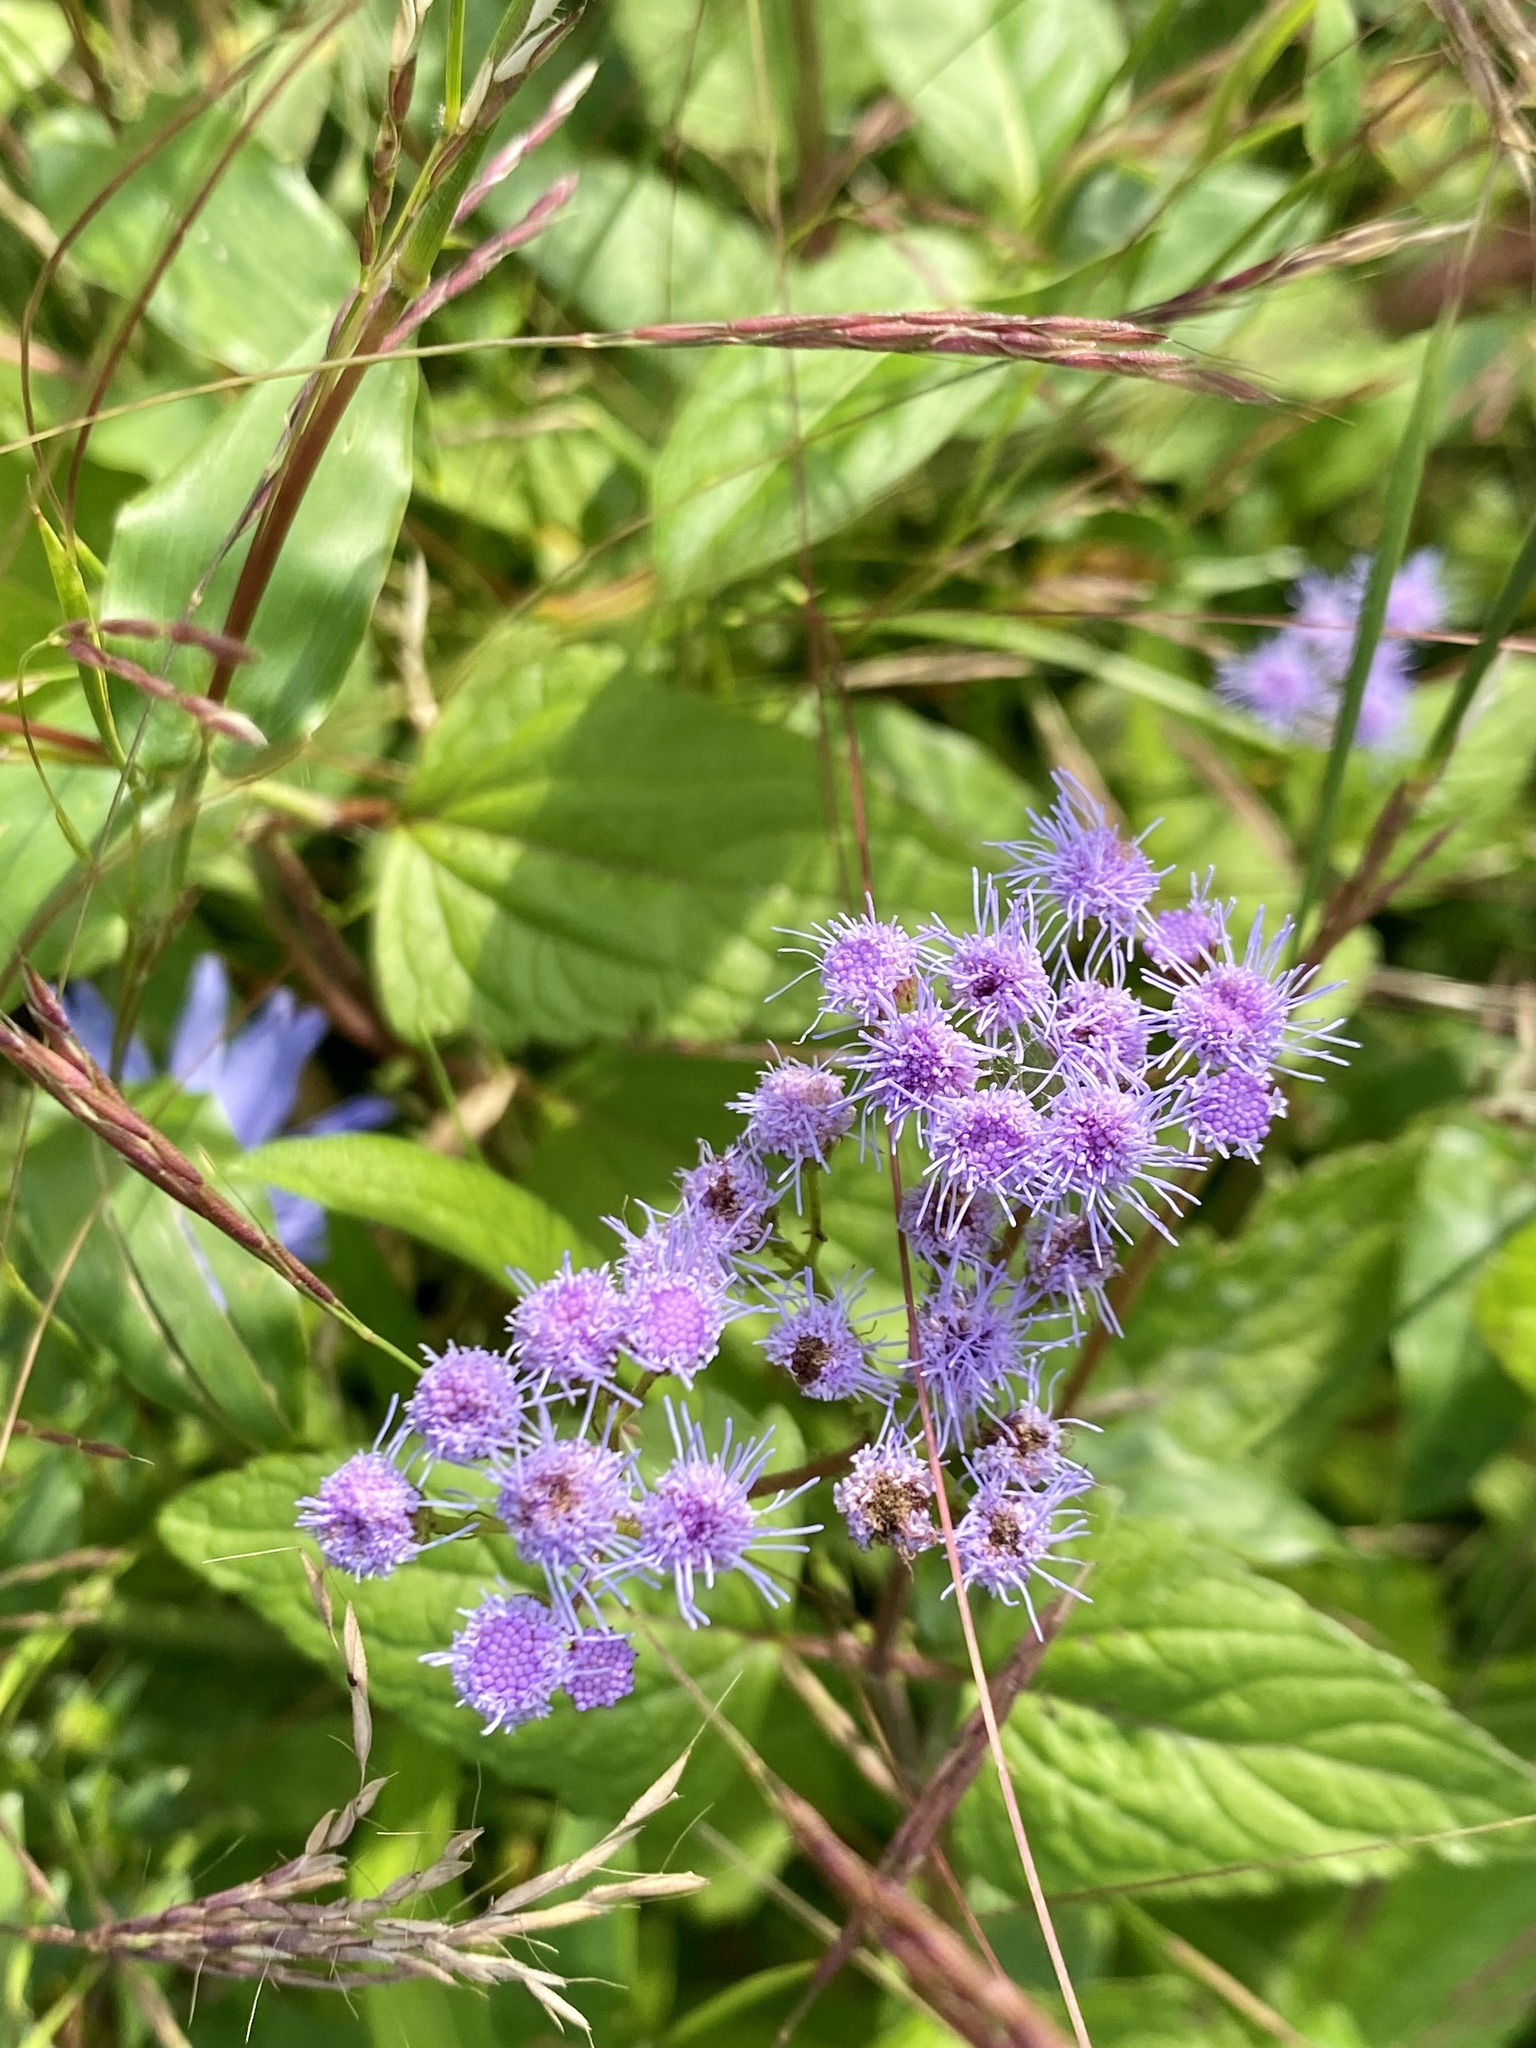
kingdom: Plantae
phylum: Tracheophyta
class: Magnoliopsida
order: Asterales
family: Asteraceae
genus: Conoclinium
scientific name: Conoclinium coelestinum
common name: Blue mistflower
